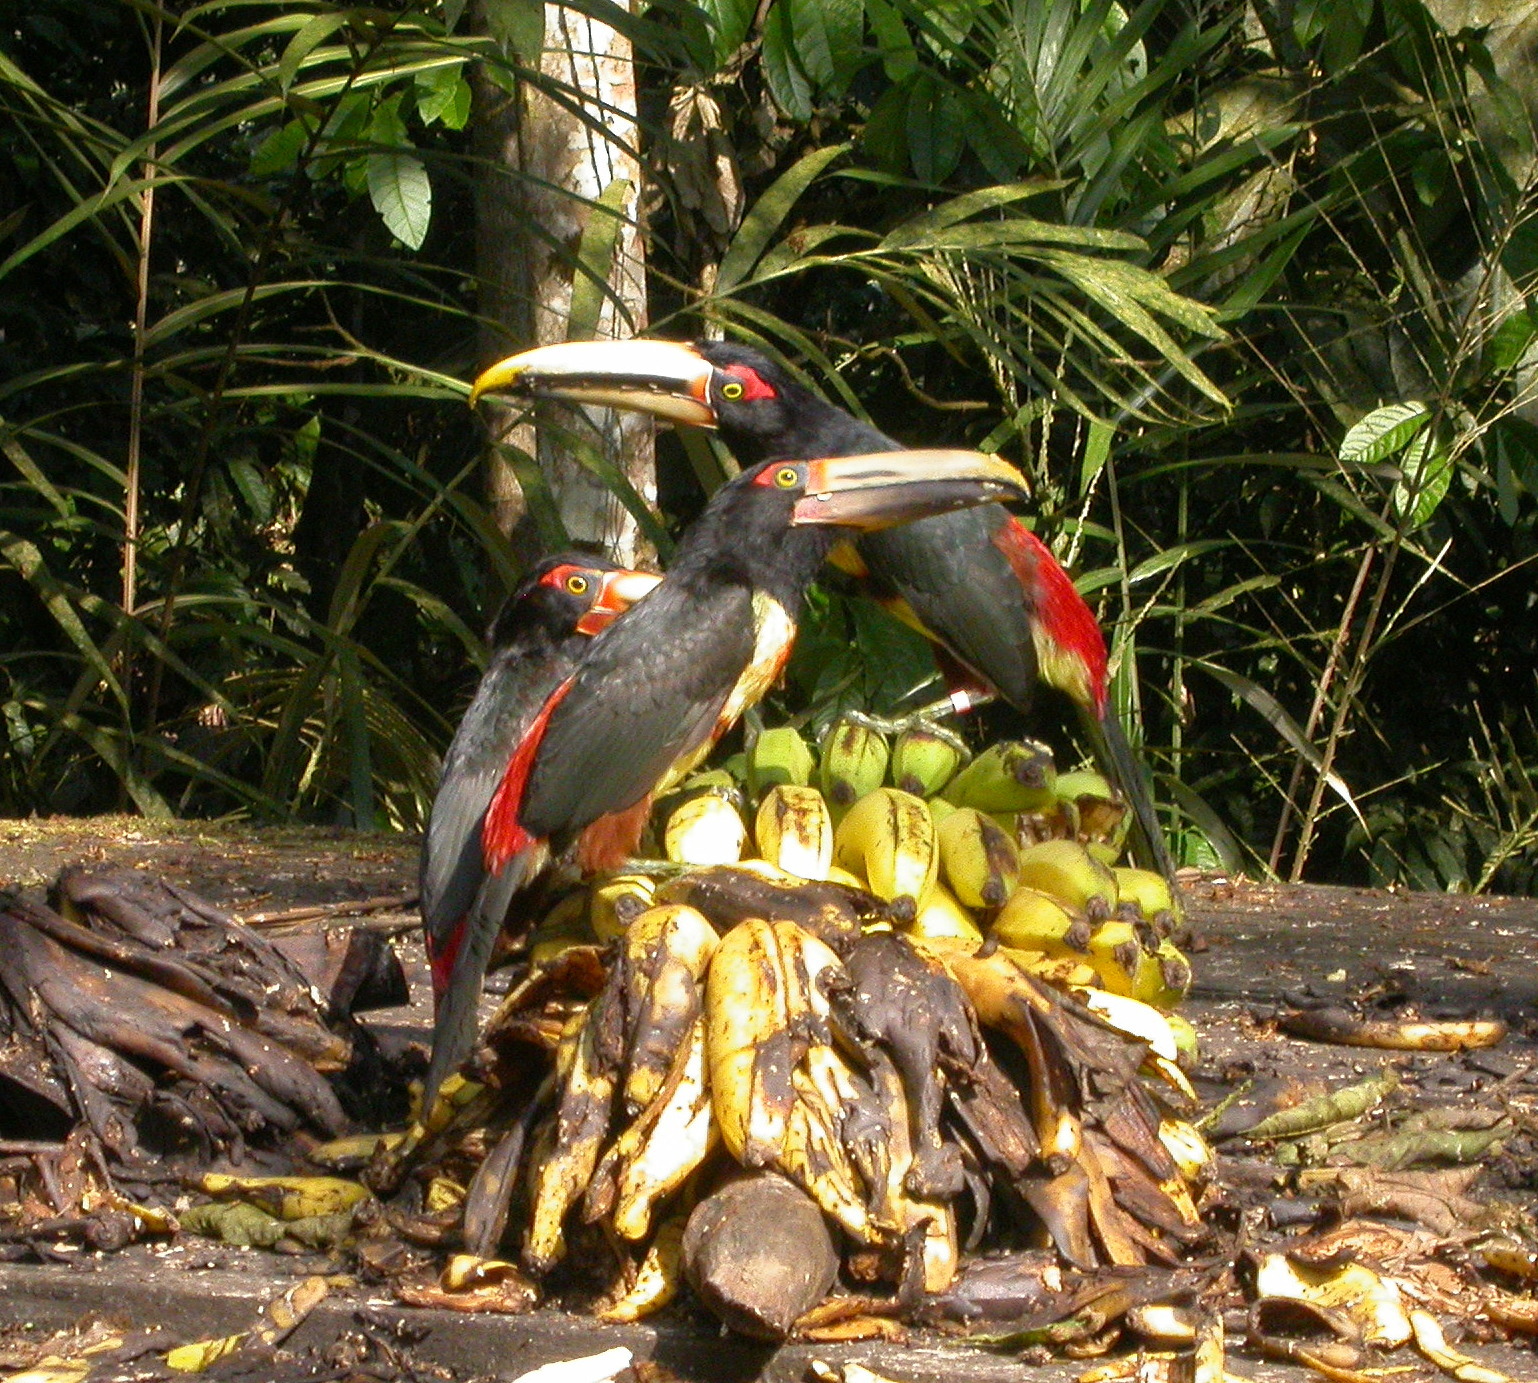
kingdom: Animalia
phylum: Chordata
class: Aves
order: Piciformes
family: Ramphastidae
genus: Pteroglossus
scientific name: Pteroglossus torquatus
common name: Collared aracari
